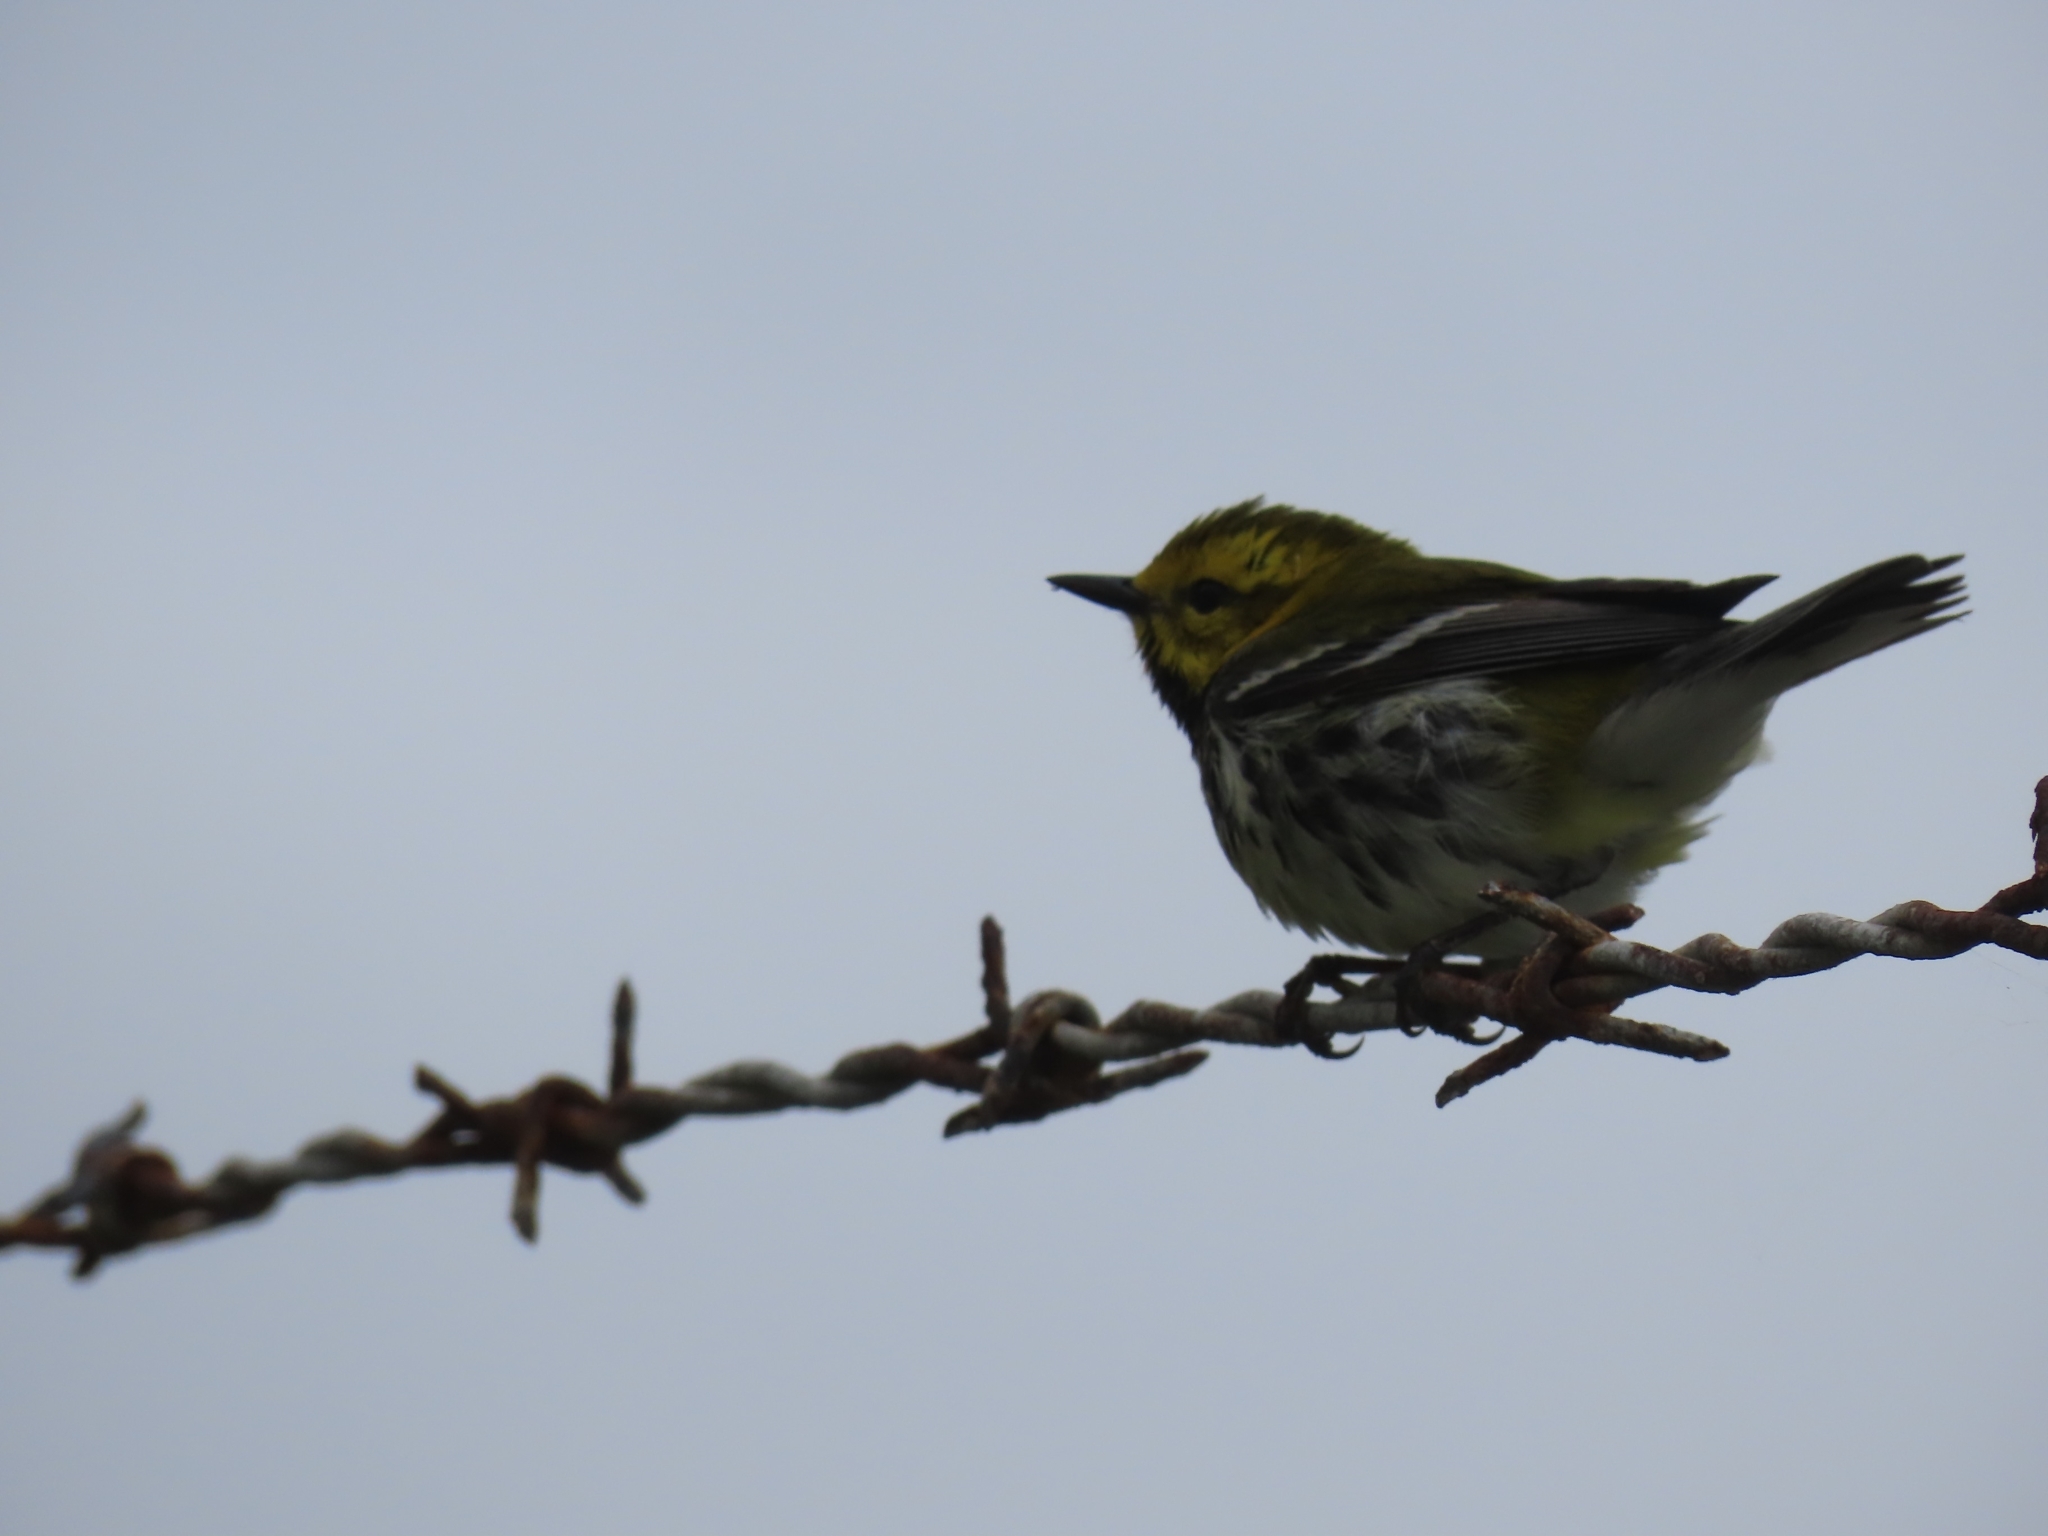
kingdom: Animalia
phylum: Chordata
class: Aves
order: Passeriformes
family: Parulidae
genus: Setophaga
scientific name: Setophaga virens
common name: Black-throated green warbler
